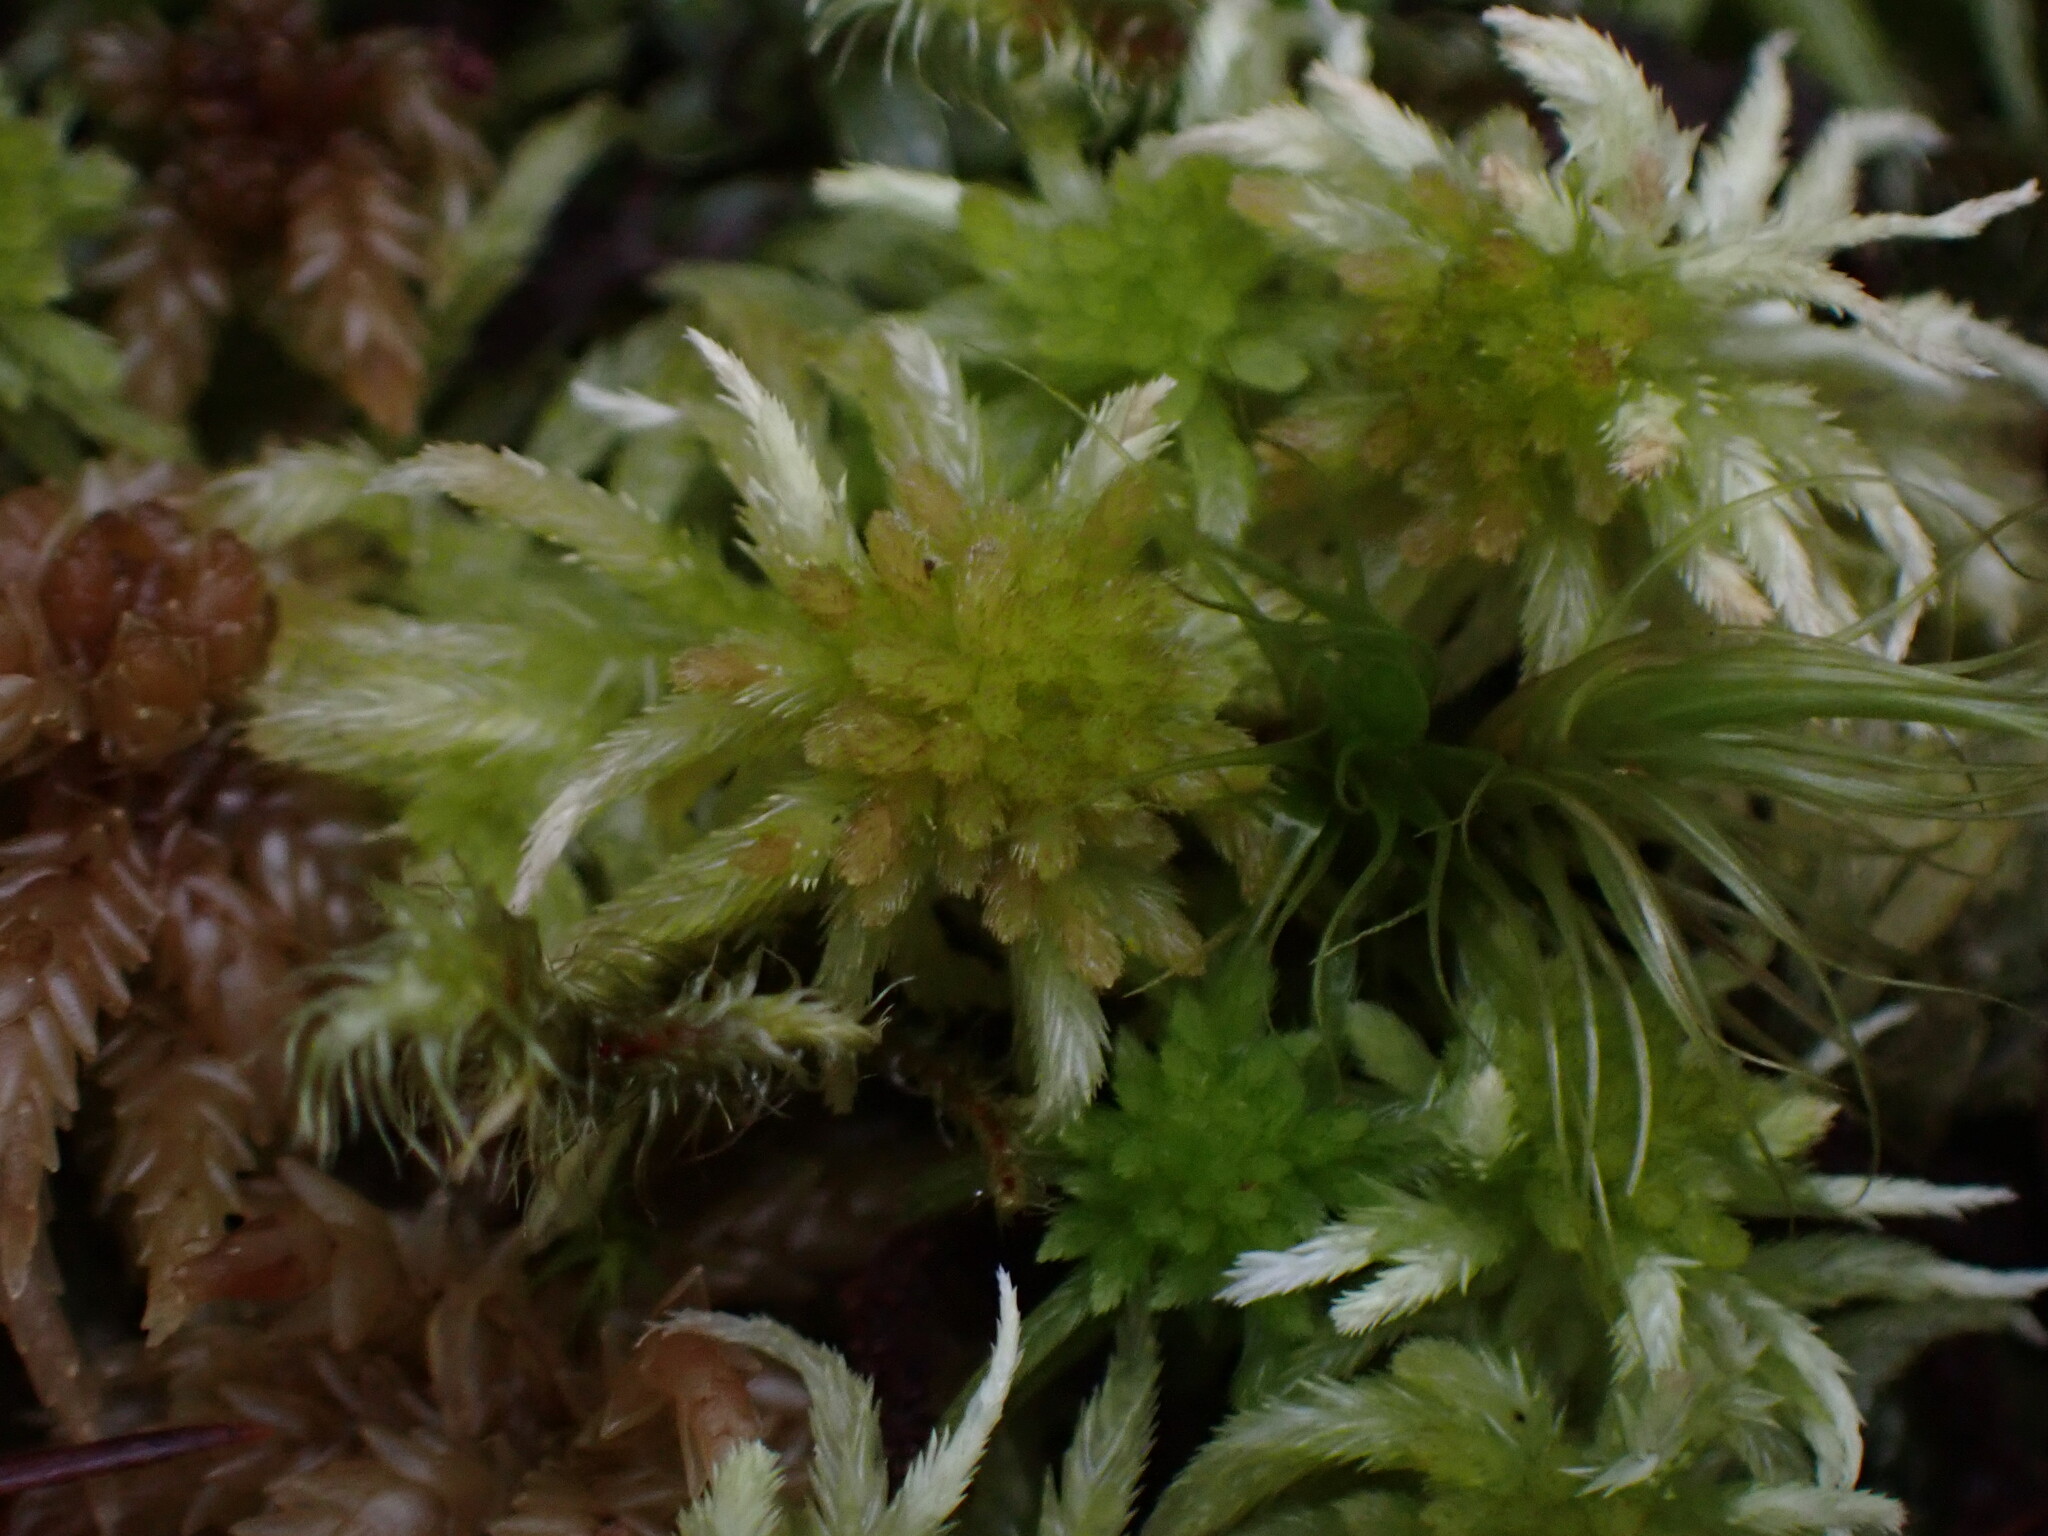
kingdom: Plantae
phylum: Bryophyta
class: Sphagnopsida
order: Sphagnales
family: Sphagnaceae
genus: Sphagnum
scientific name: Sphagnum pacificum
